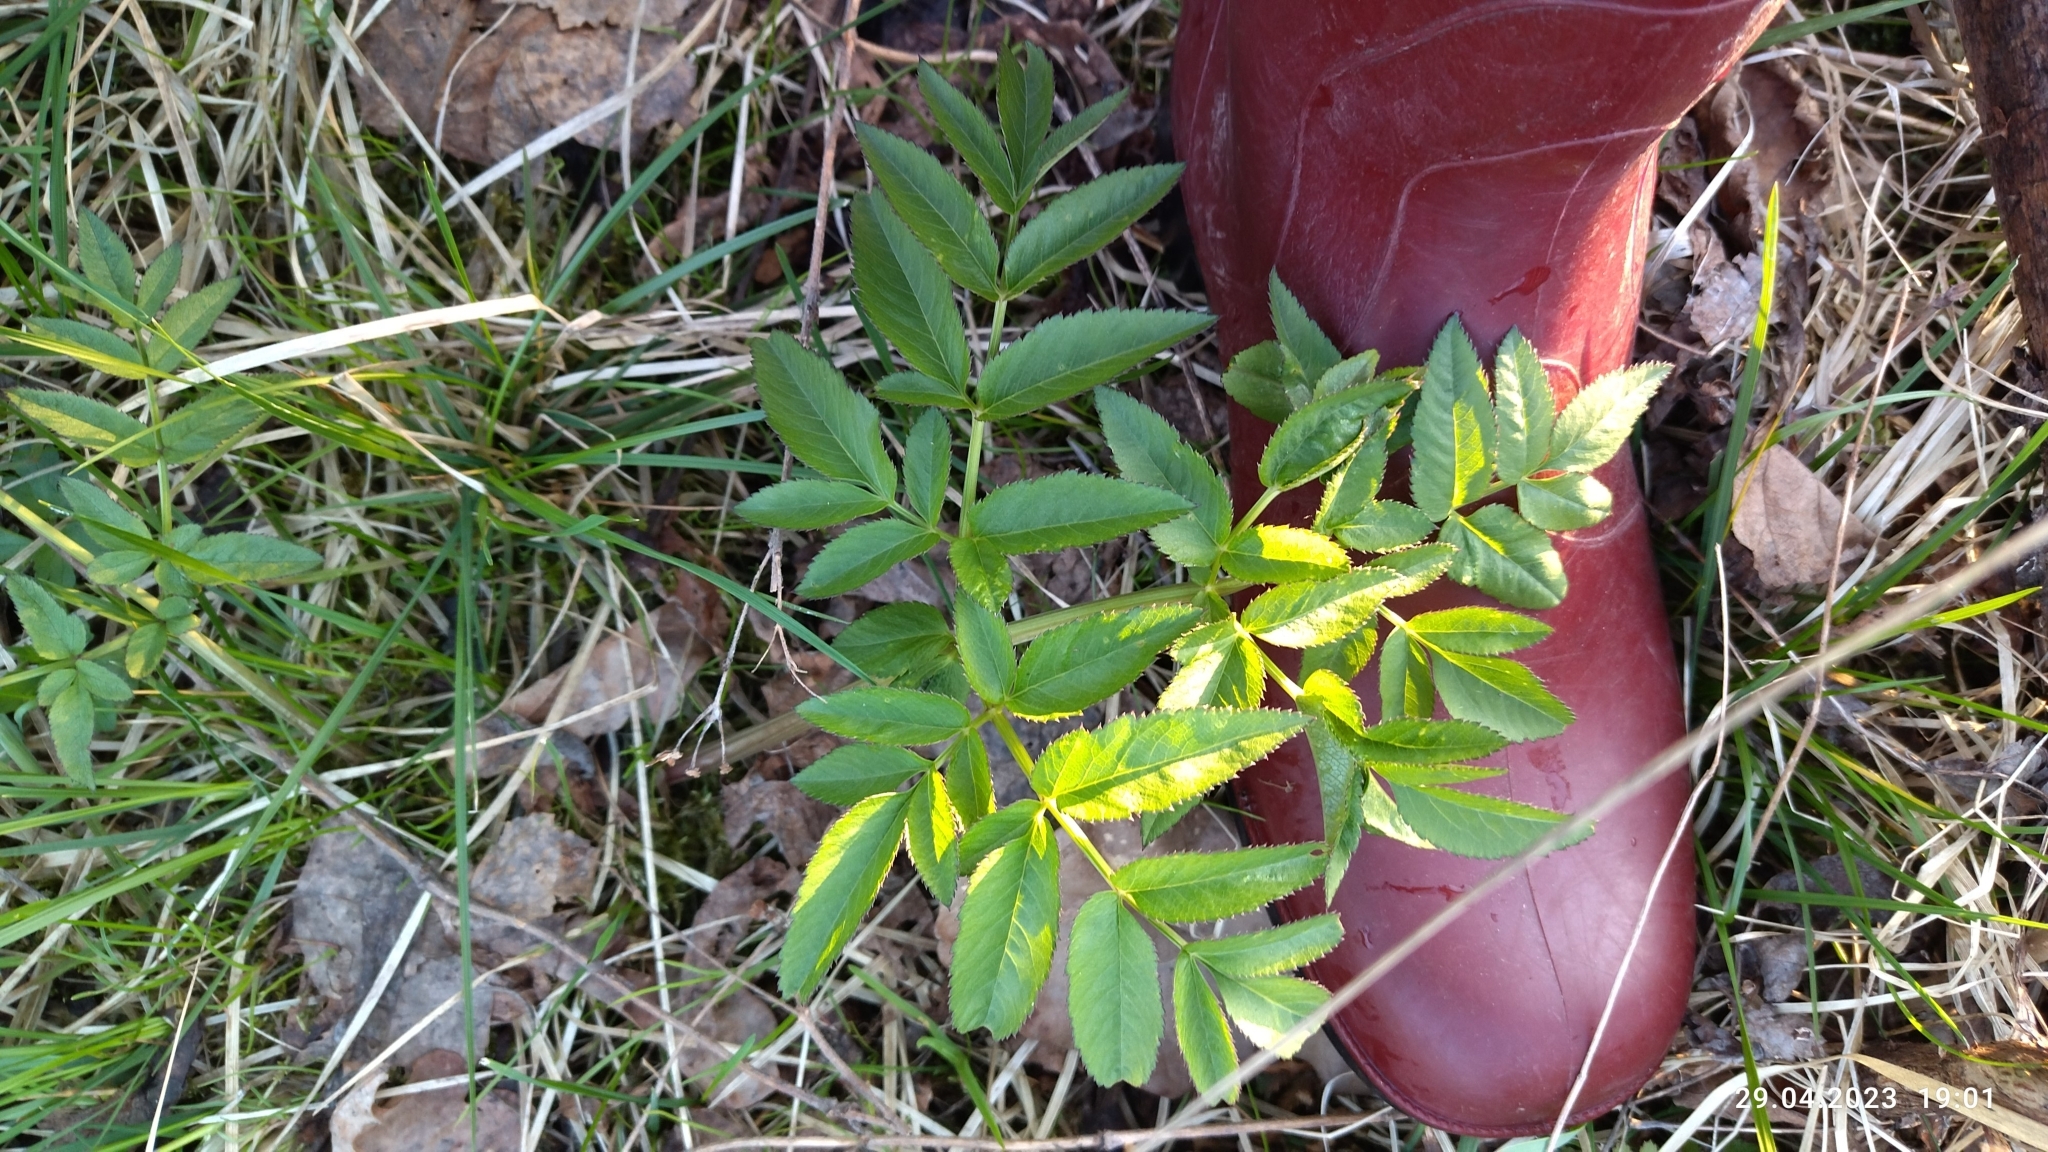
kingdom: Plantae
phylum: Tracheophyta
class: Magnoliopsida
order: Apiales
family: Apiaceae
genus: Angelica
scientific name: Angelica sylvestris
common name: Wild angelica
